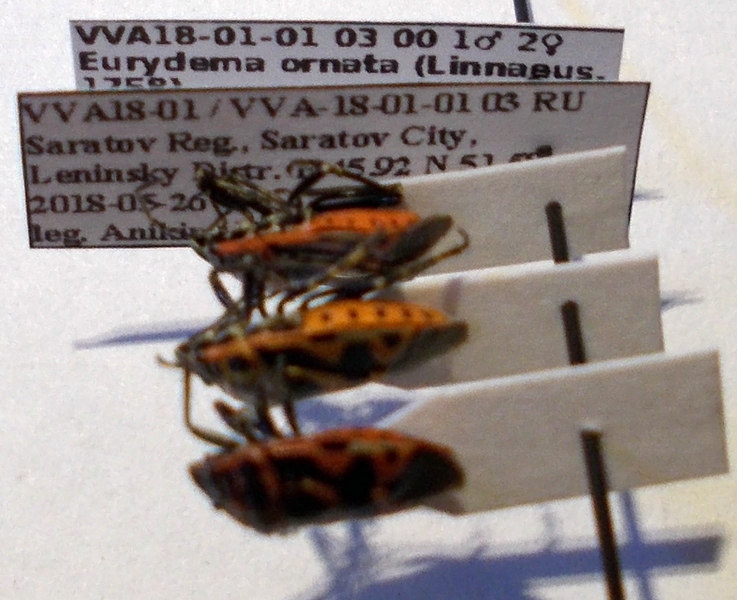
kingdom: Animalia
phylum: Arthropoda
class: Insecta
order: Hemiptera
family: Pentatomidae
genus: Eurydema
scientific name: Eurydema ornata
